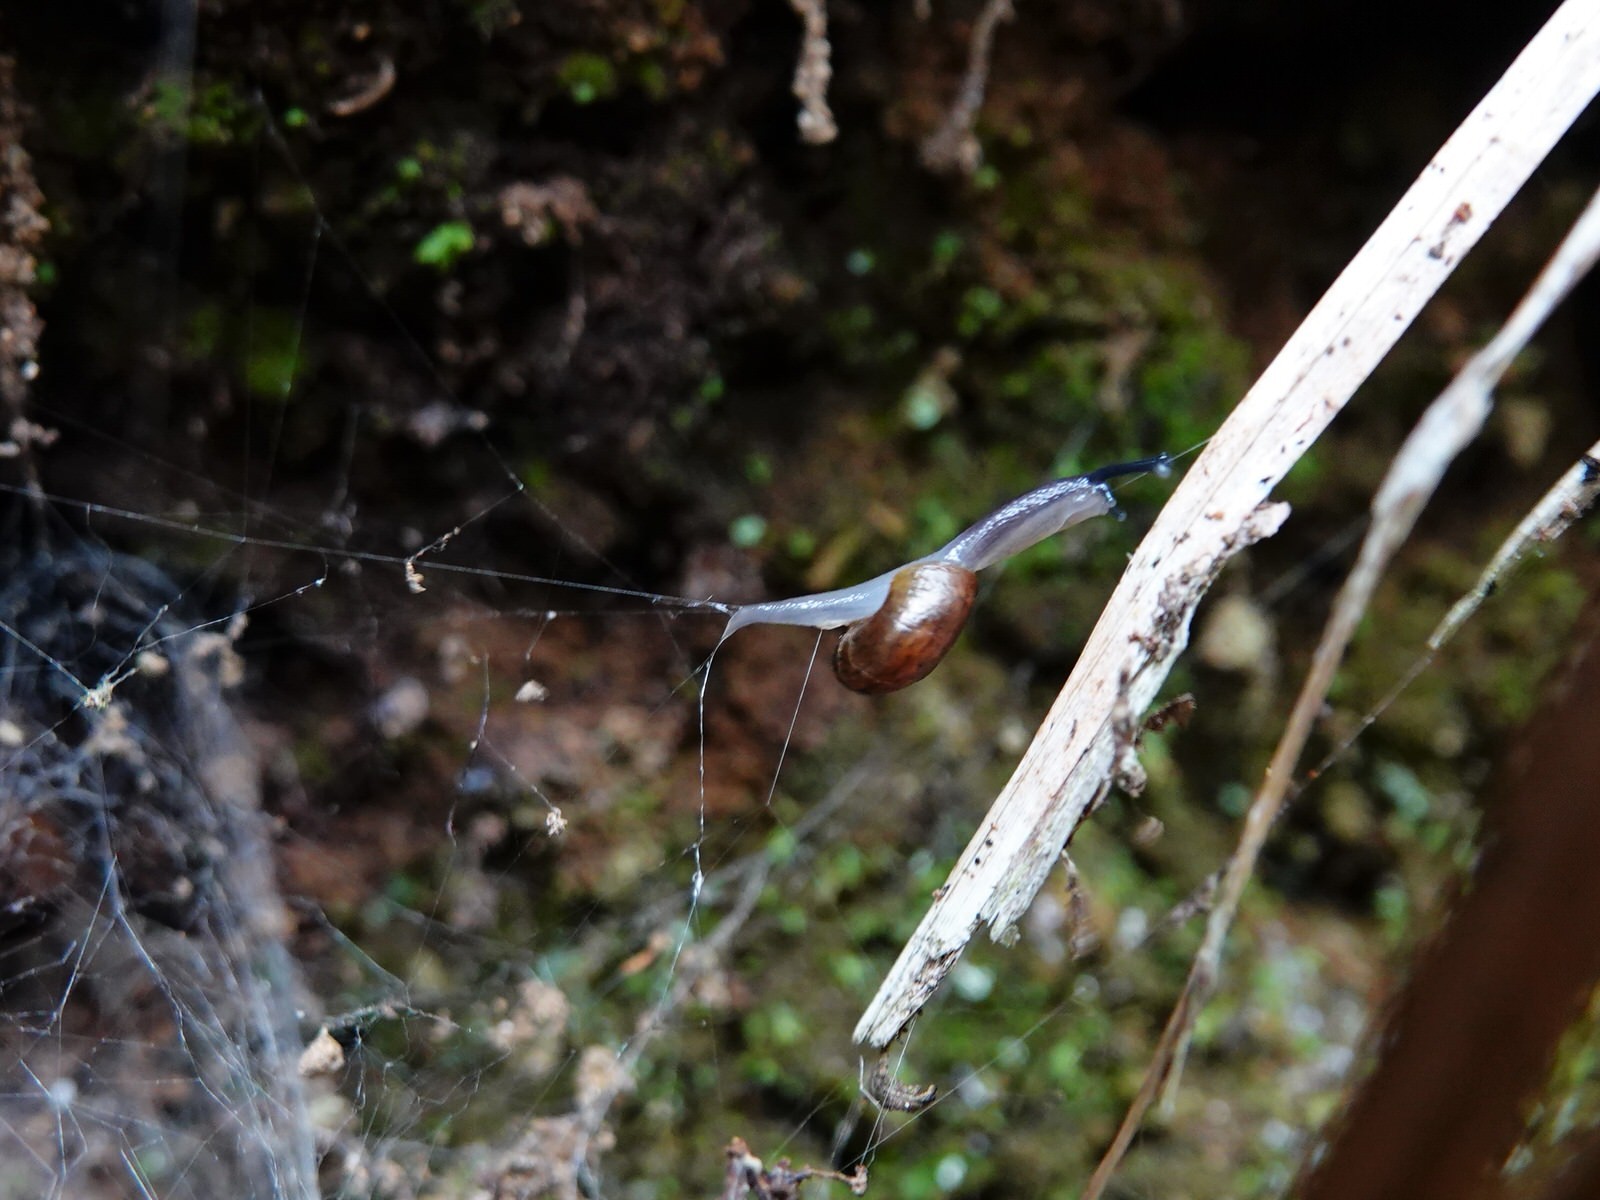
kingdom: Animalia
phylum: Mollusca
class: Gastropoda
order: Stylommatophora
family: Rhytididae
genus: Rhytida
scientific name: Rhytida greenwoodi
